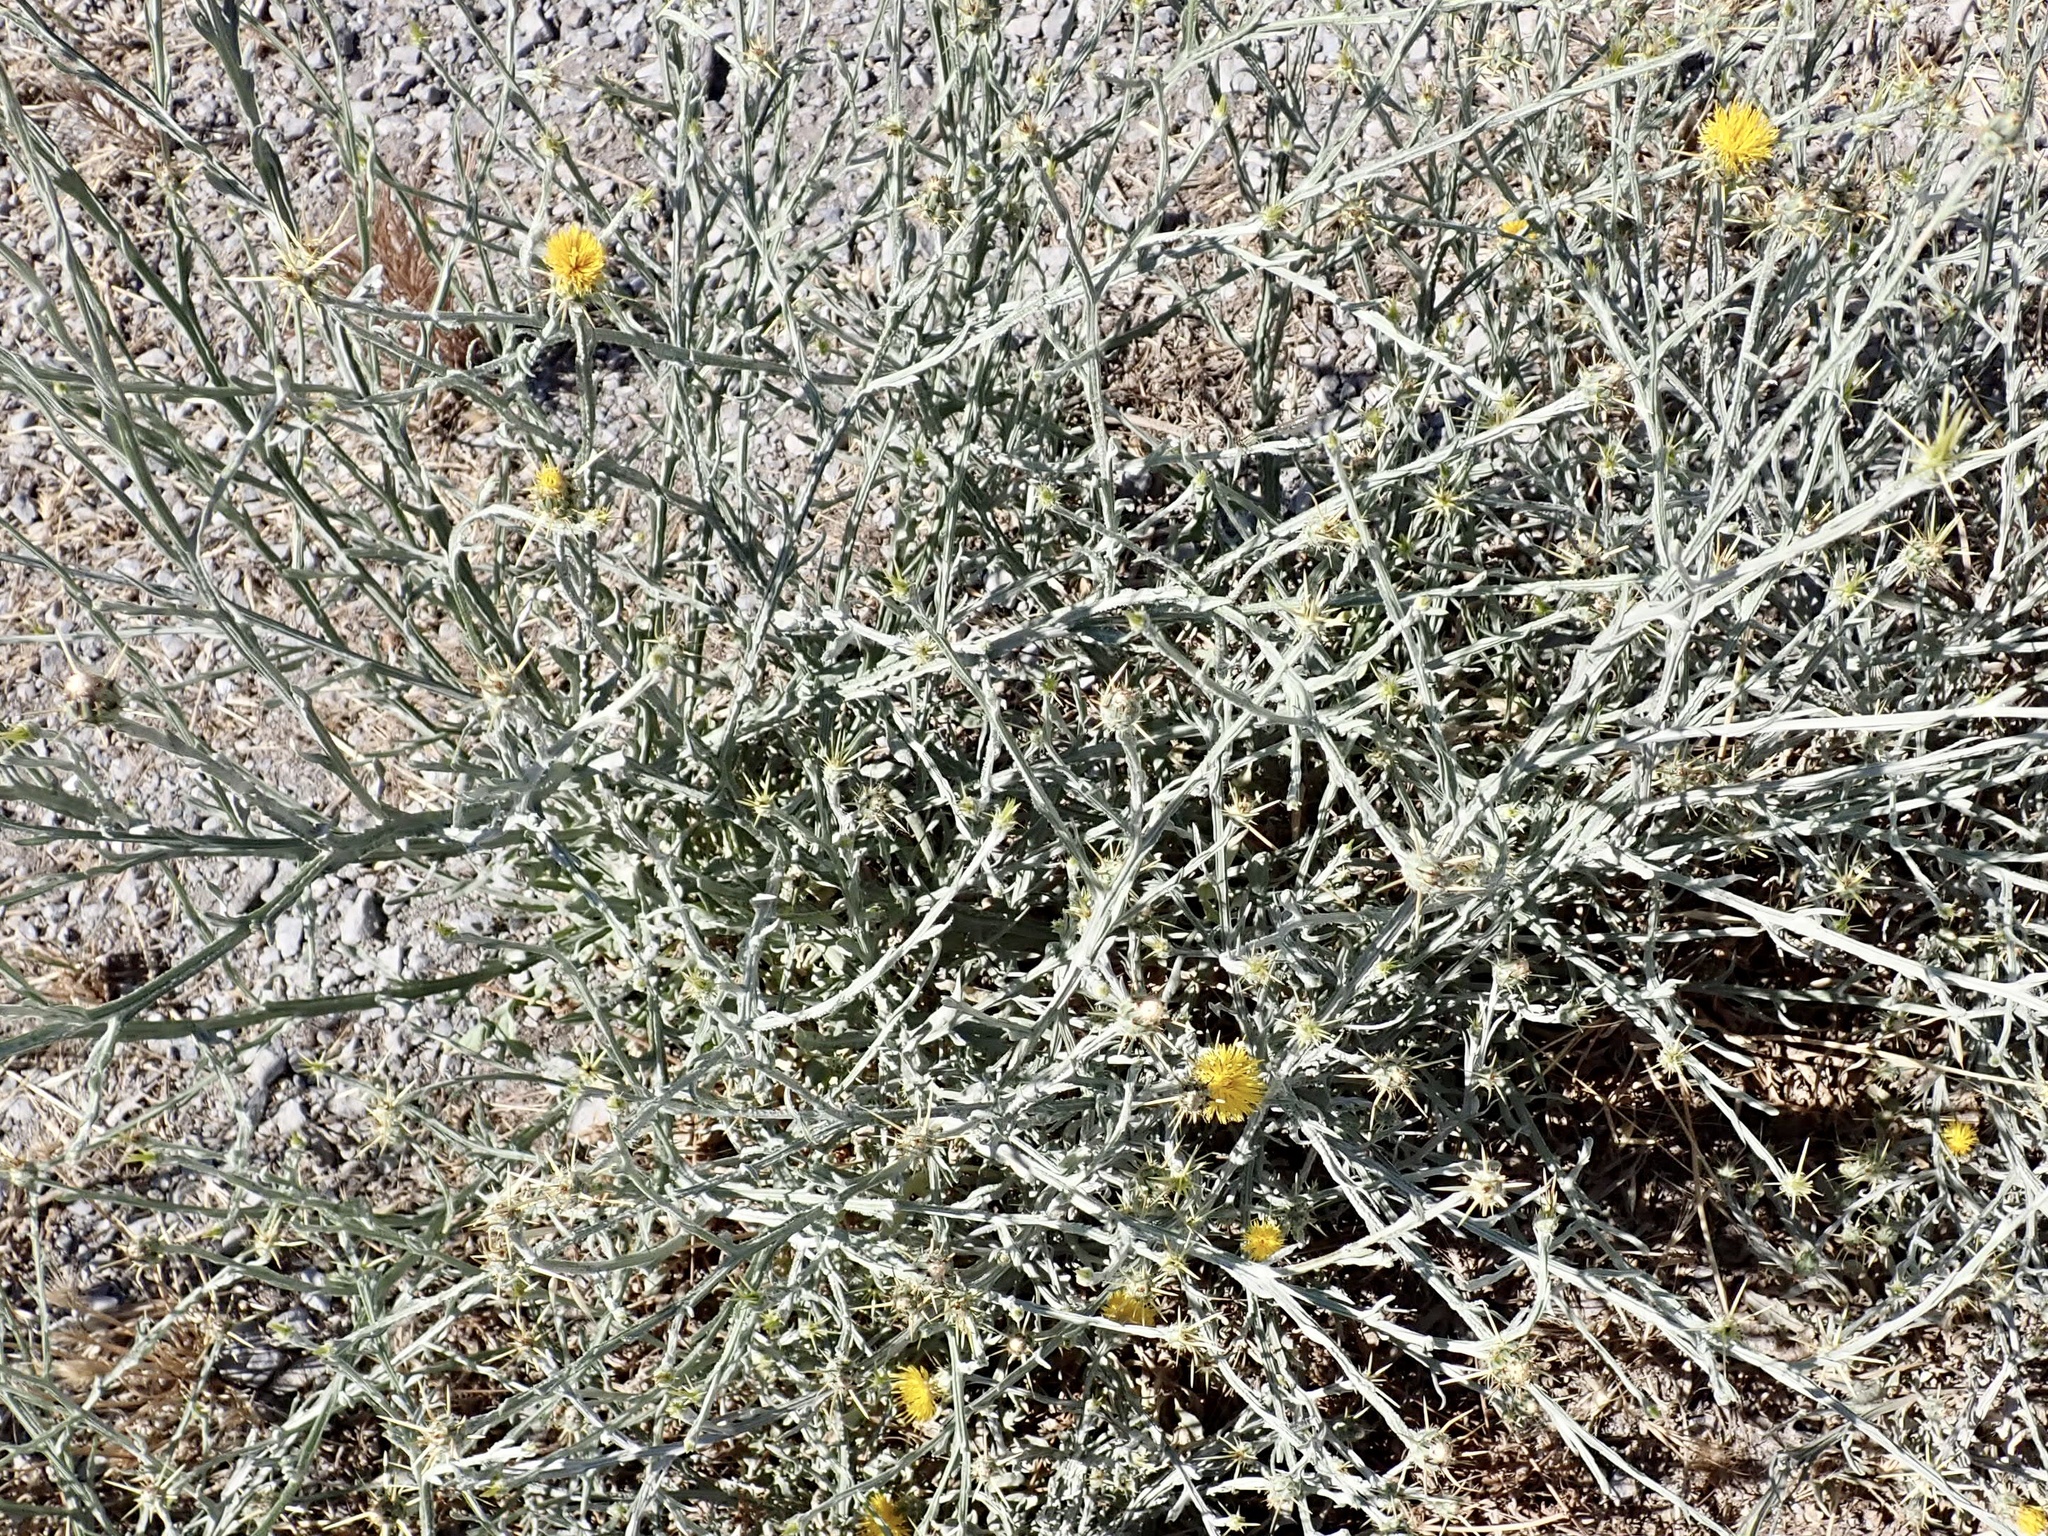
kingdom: Plantae
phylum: Tracheophyta
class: Magnoliopsida
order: Asterales
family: Asteraceae
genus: Centaurea
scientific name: Centaurea solstitialis
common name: Yellow star-thistle
